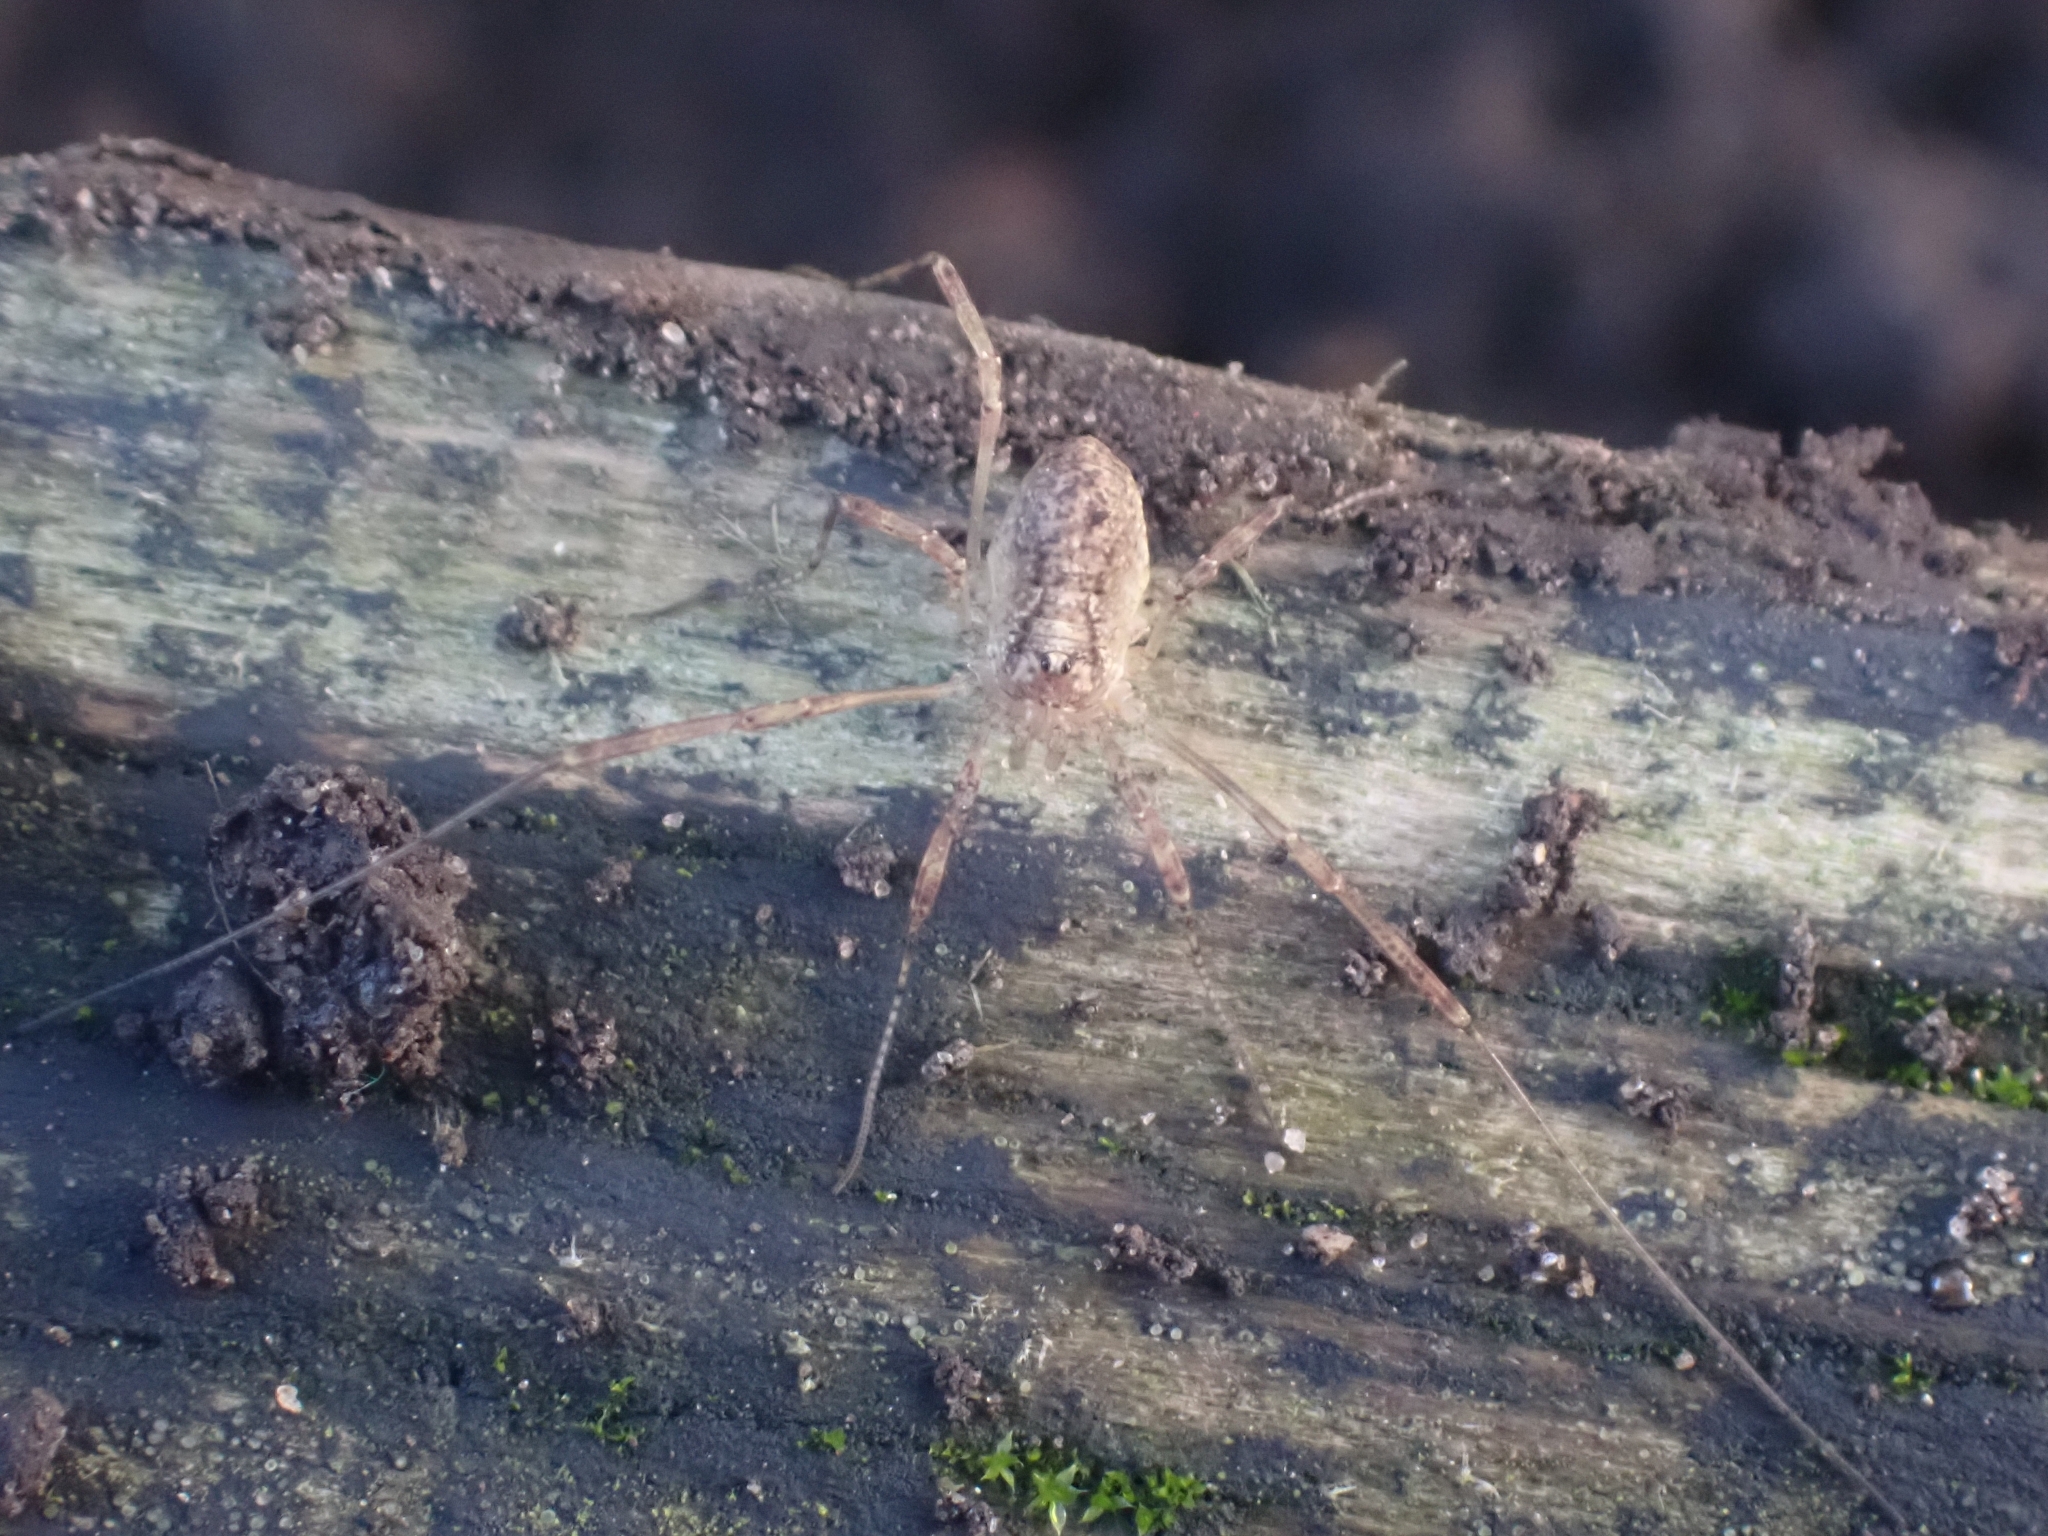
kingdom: Animalia
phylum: Arthropoda
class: Arachnida
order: Opiliones
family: Phalangiidae
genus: Paroligolophus
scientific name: Paroligolophus agrestis
